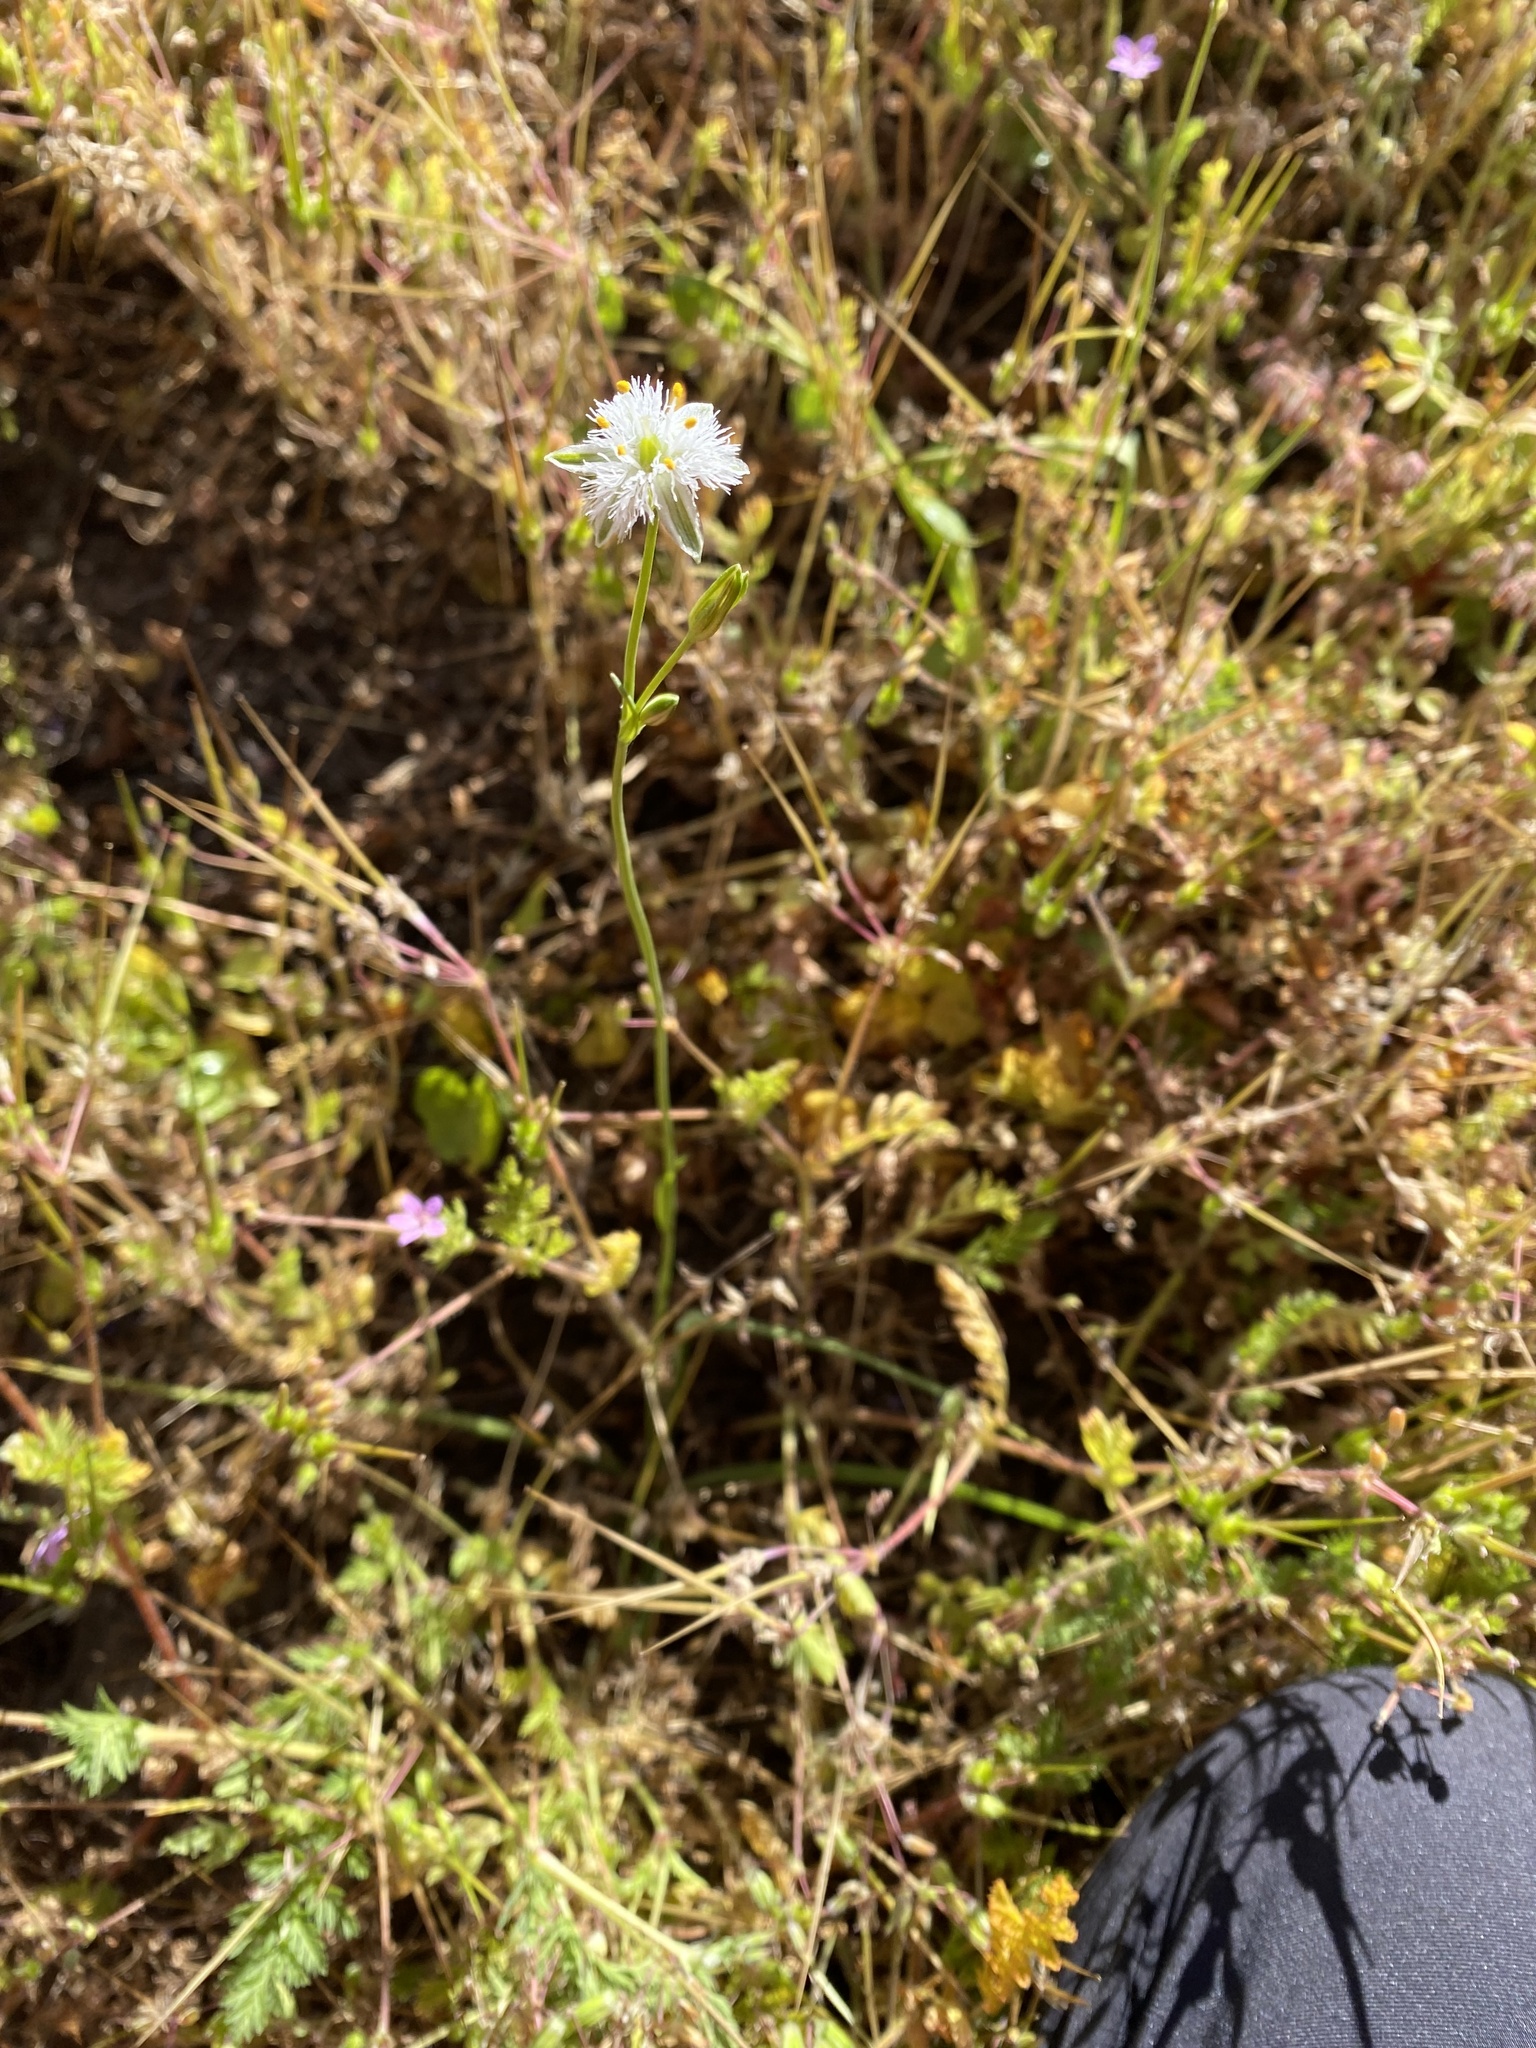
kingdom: Plantae
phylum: Tracheophyta
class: Liliopsida
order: Asparagales
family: Asparagaceae
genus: Trichopetalum
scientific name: Trichopetalum plumosum
